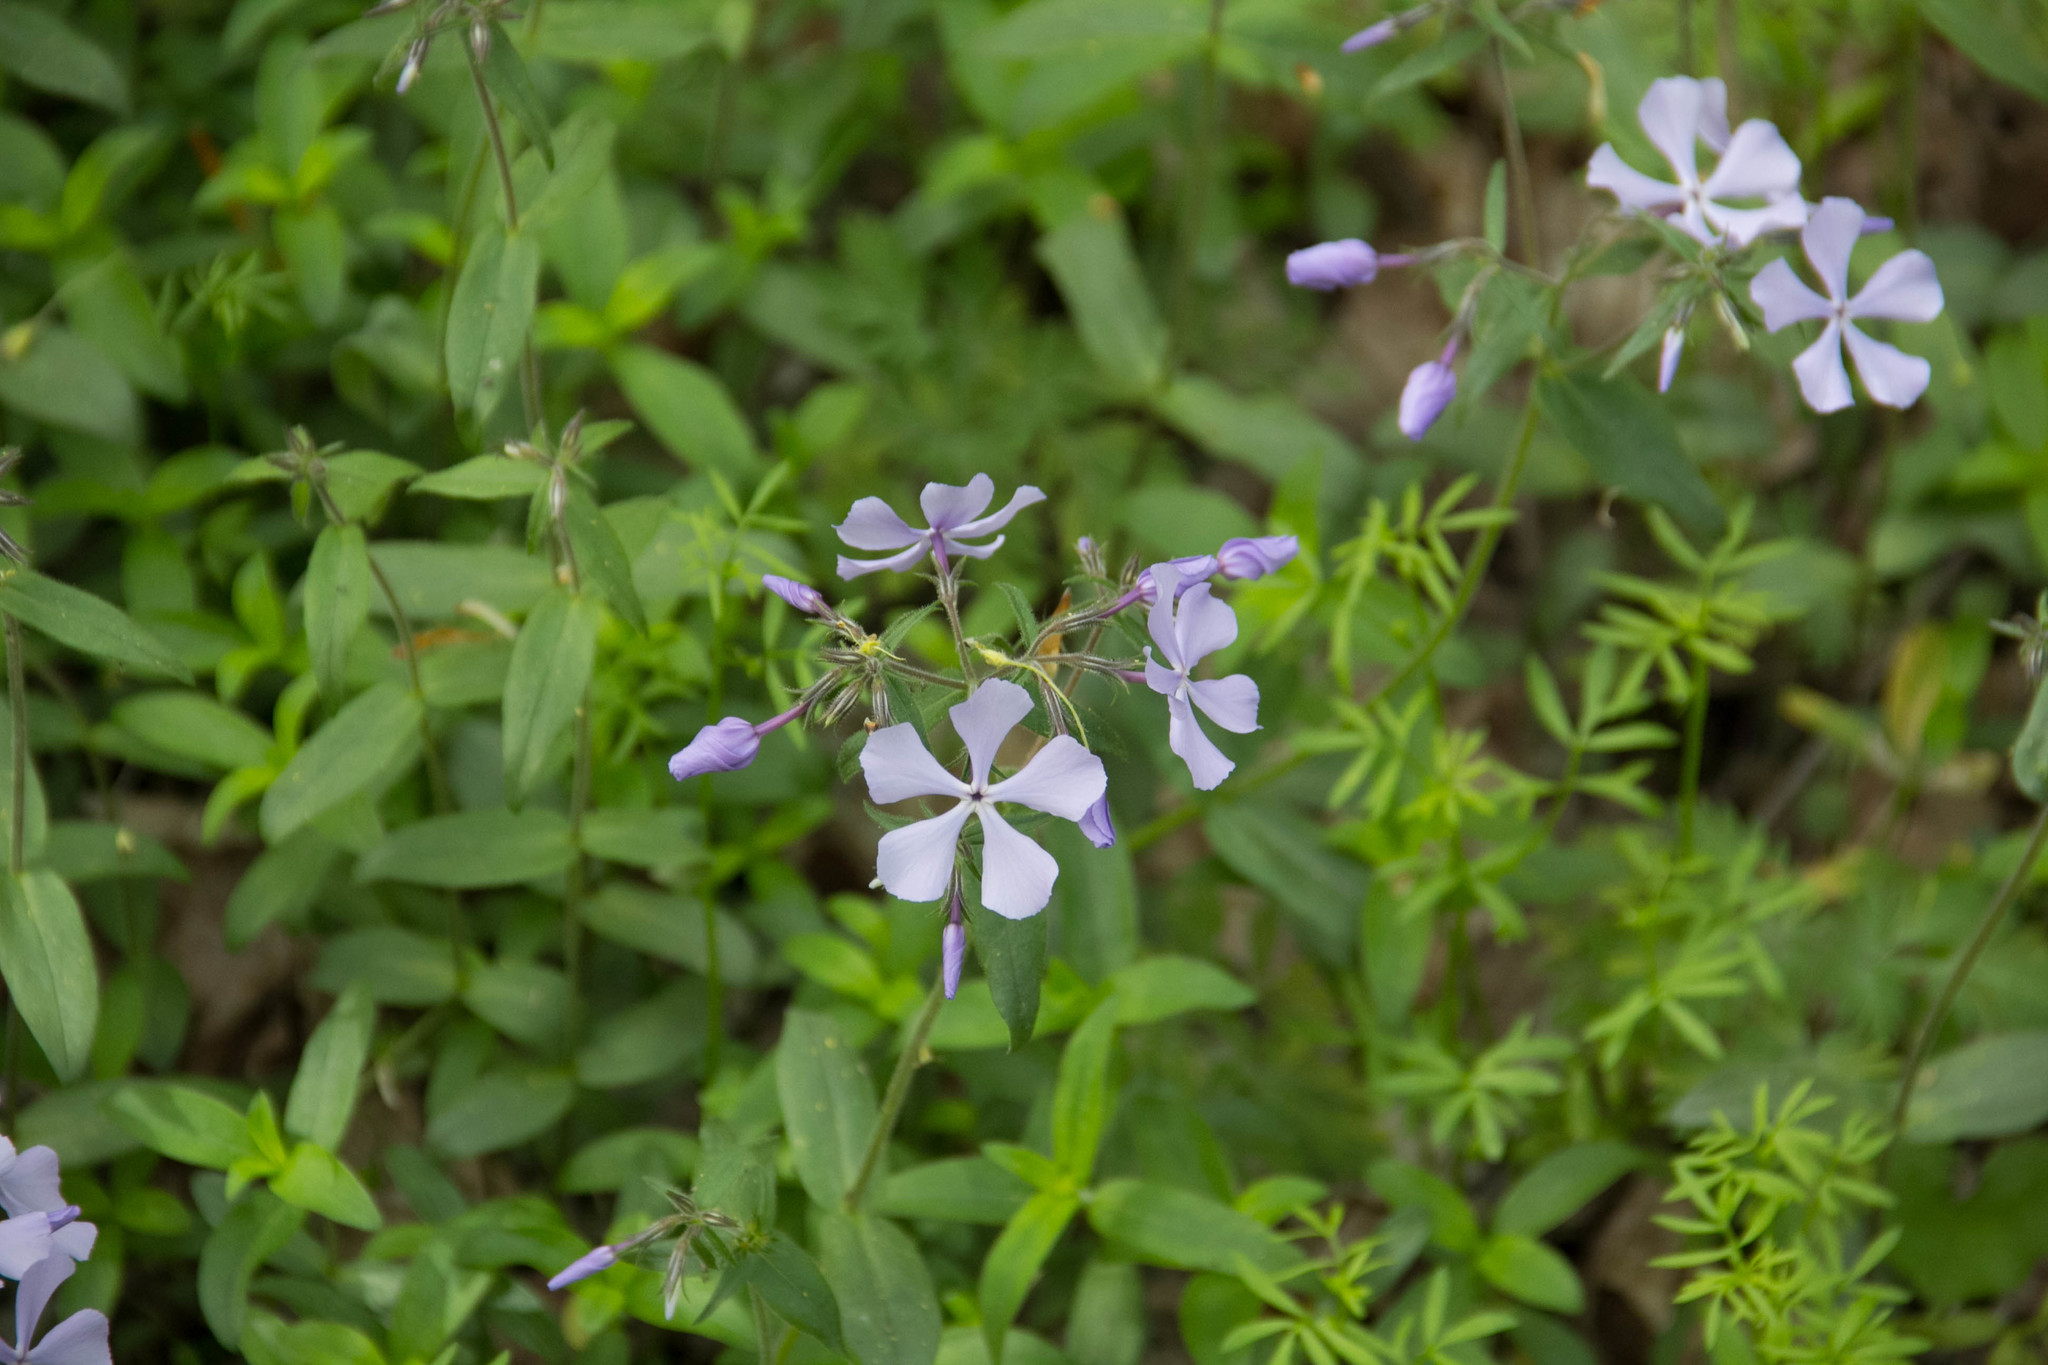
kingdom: Plantae
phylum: Tracheophyta
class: Magnoliopsida
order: Ericales
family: Polemoniaceae
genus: Phlox
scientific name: Phlox divaricata
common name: Blue phlox
